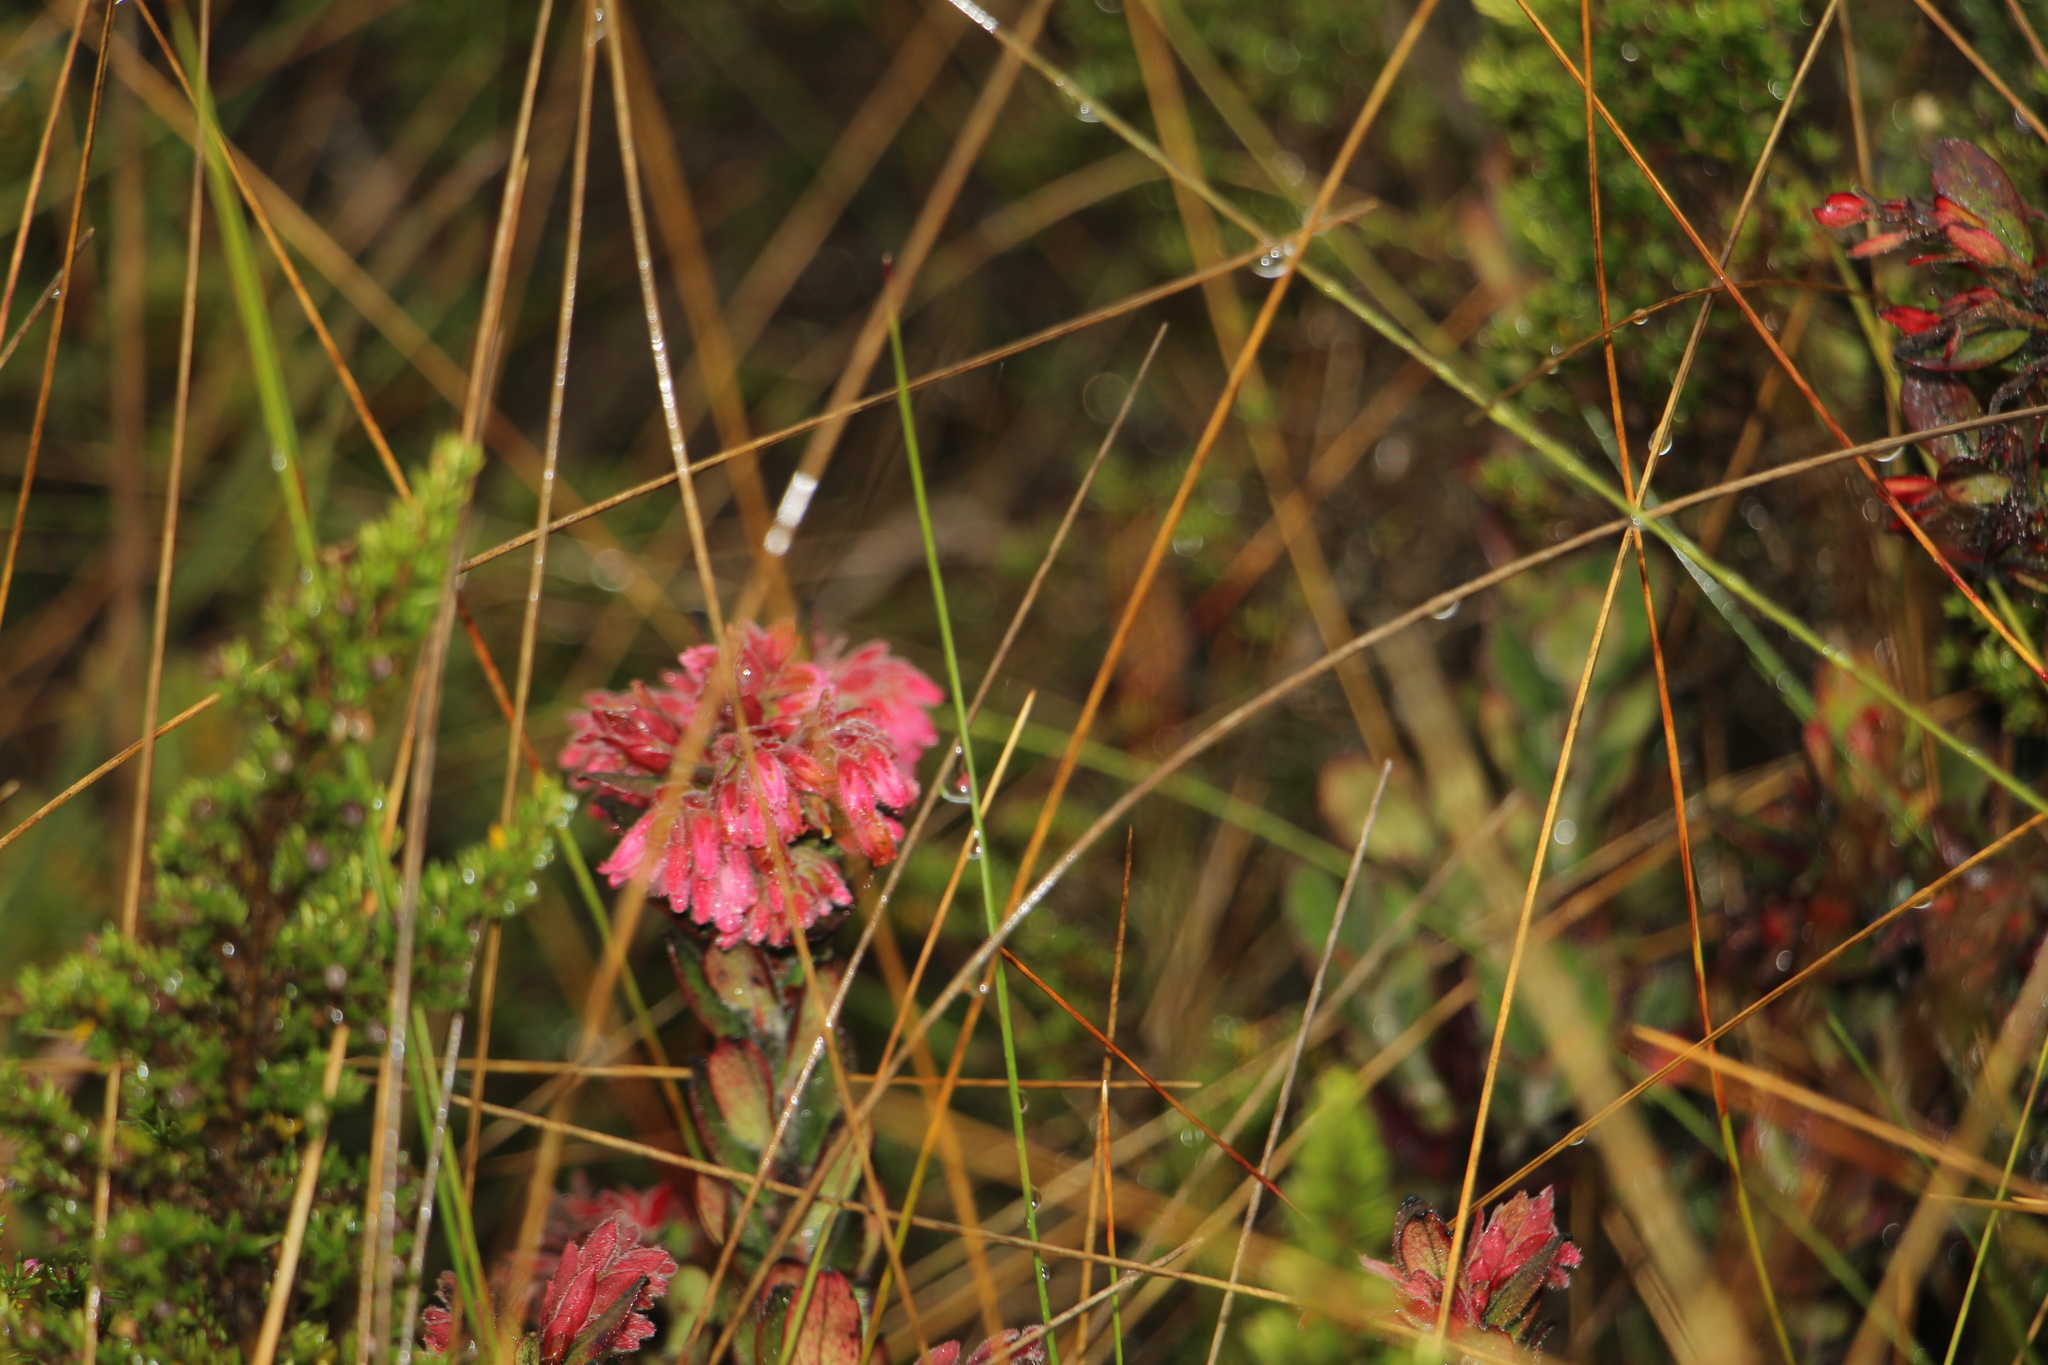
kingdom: Plantae
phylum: Tracheophyta
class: Magnoliopsida
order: Ericales
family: Ericaceae
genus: Gaylussacia
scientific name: Gaylussacia buxifolia
